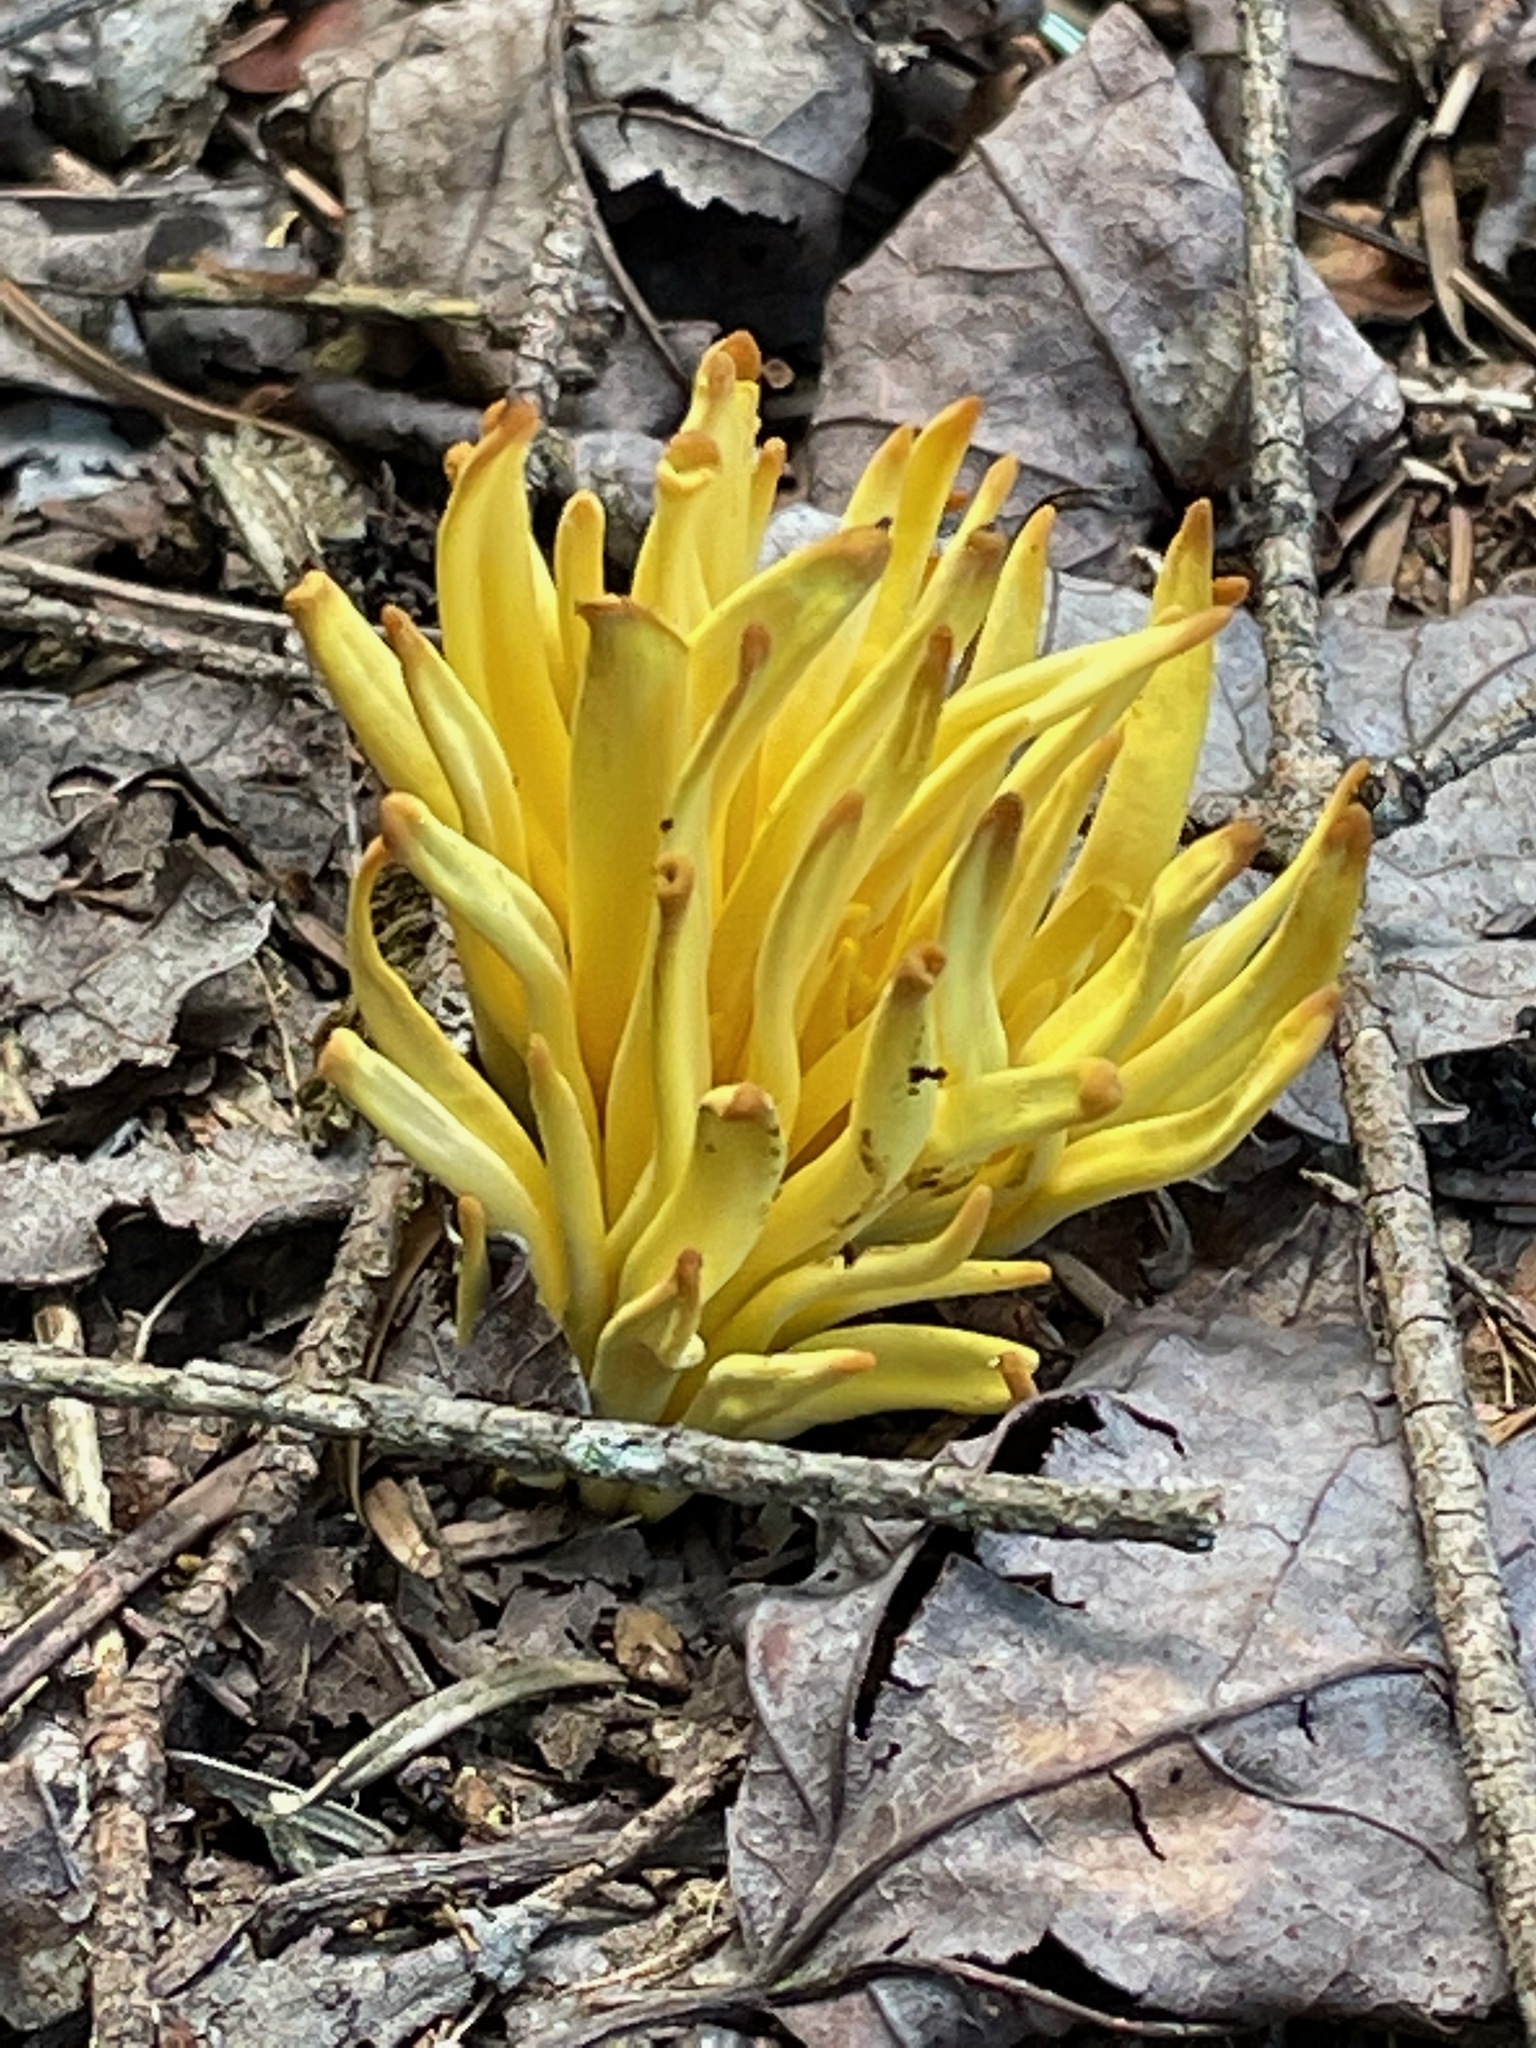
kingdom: Fungi
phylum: Basidiomycota
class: Agaricomycetes
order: Agaricales
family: Clavariaceae
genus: Clavulinopsis
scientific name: Clavulinopsis fusiformis
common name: Golden spindles
